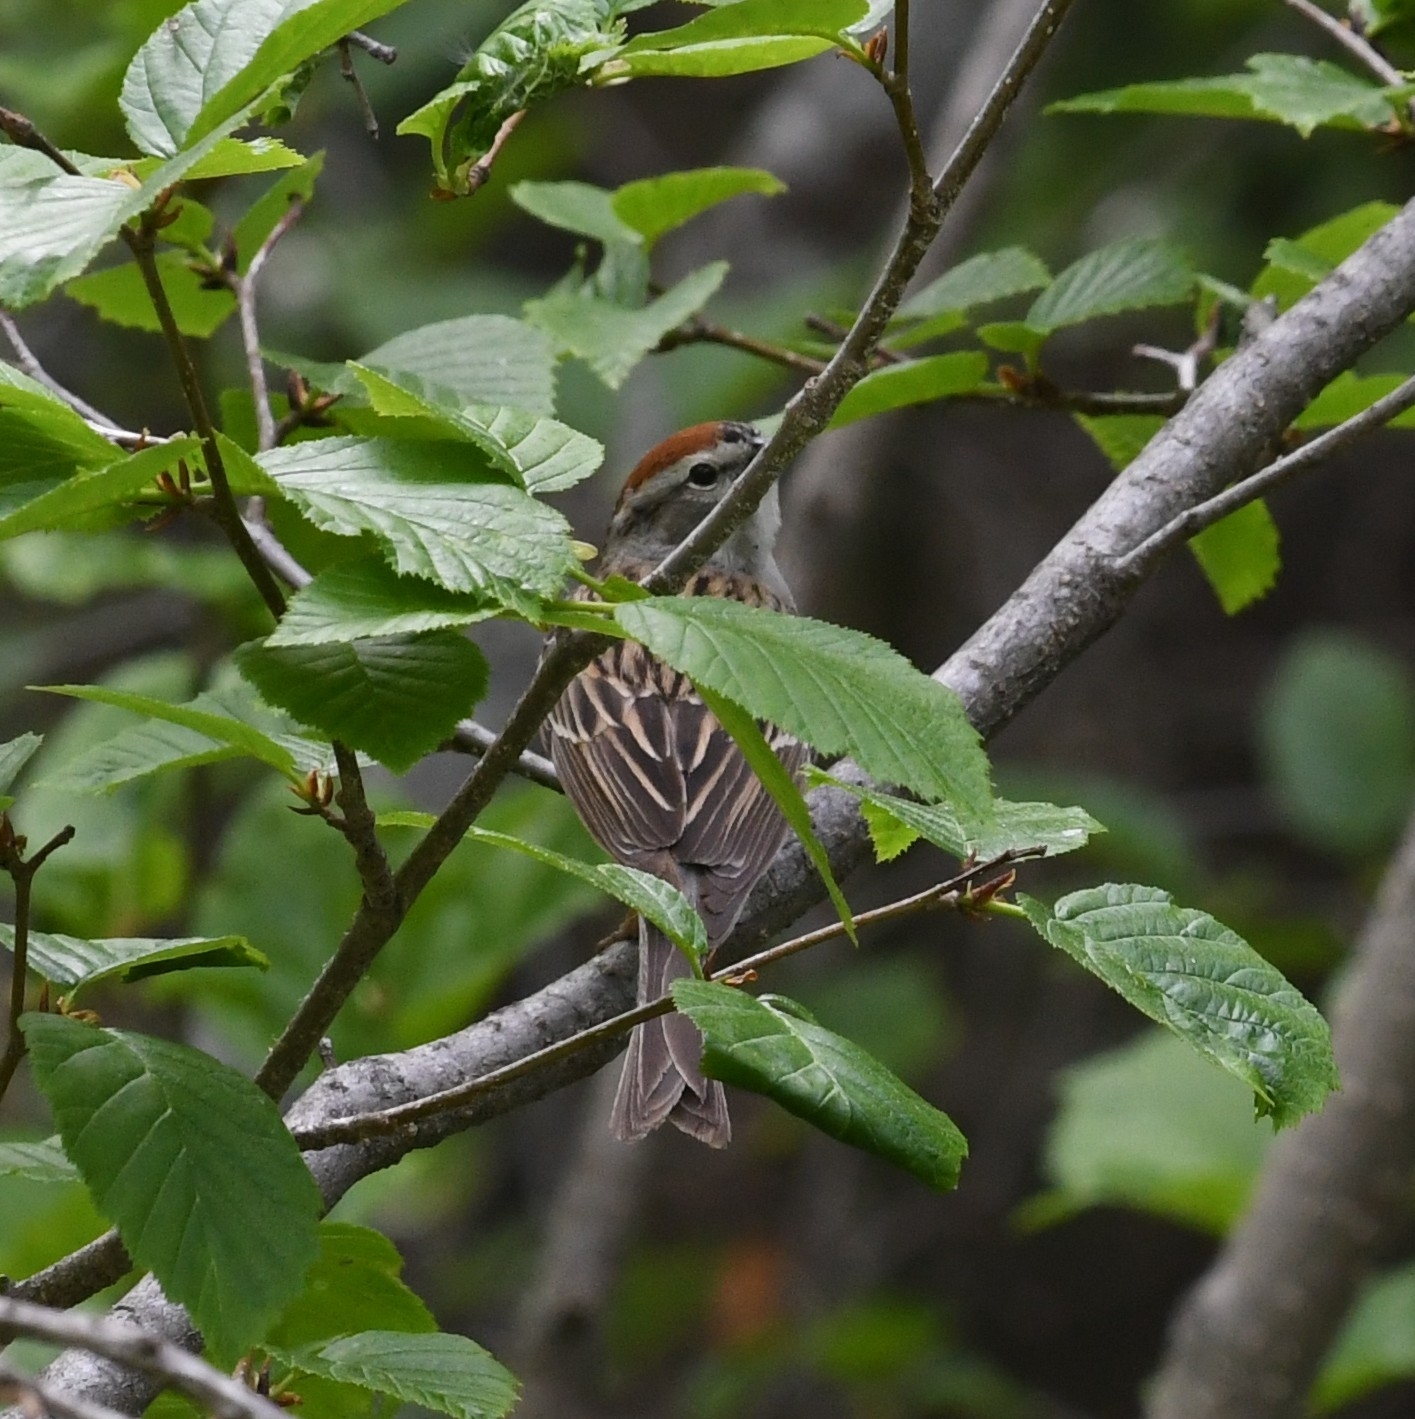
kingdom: Animalia
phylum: Chordata
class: Aves
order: Passeriformes
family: Passerellidae
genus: Spizella
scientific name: Spizella passerina
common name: Chipping sparrow
